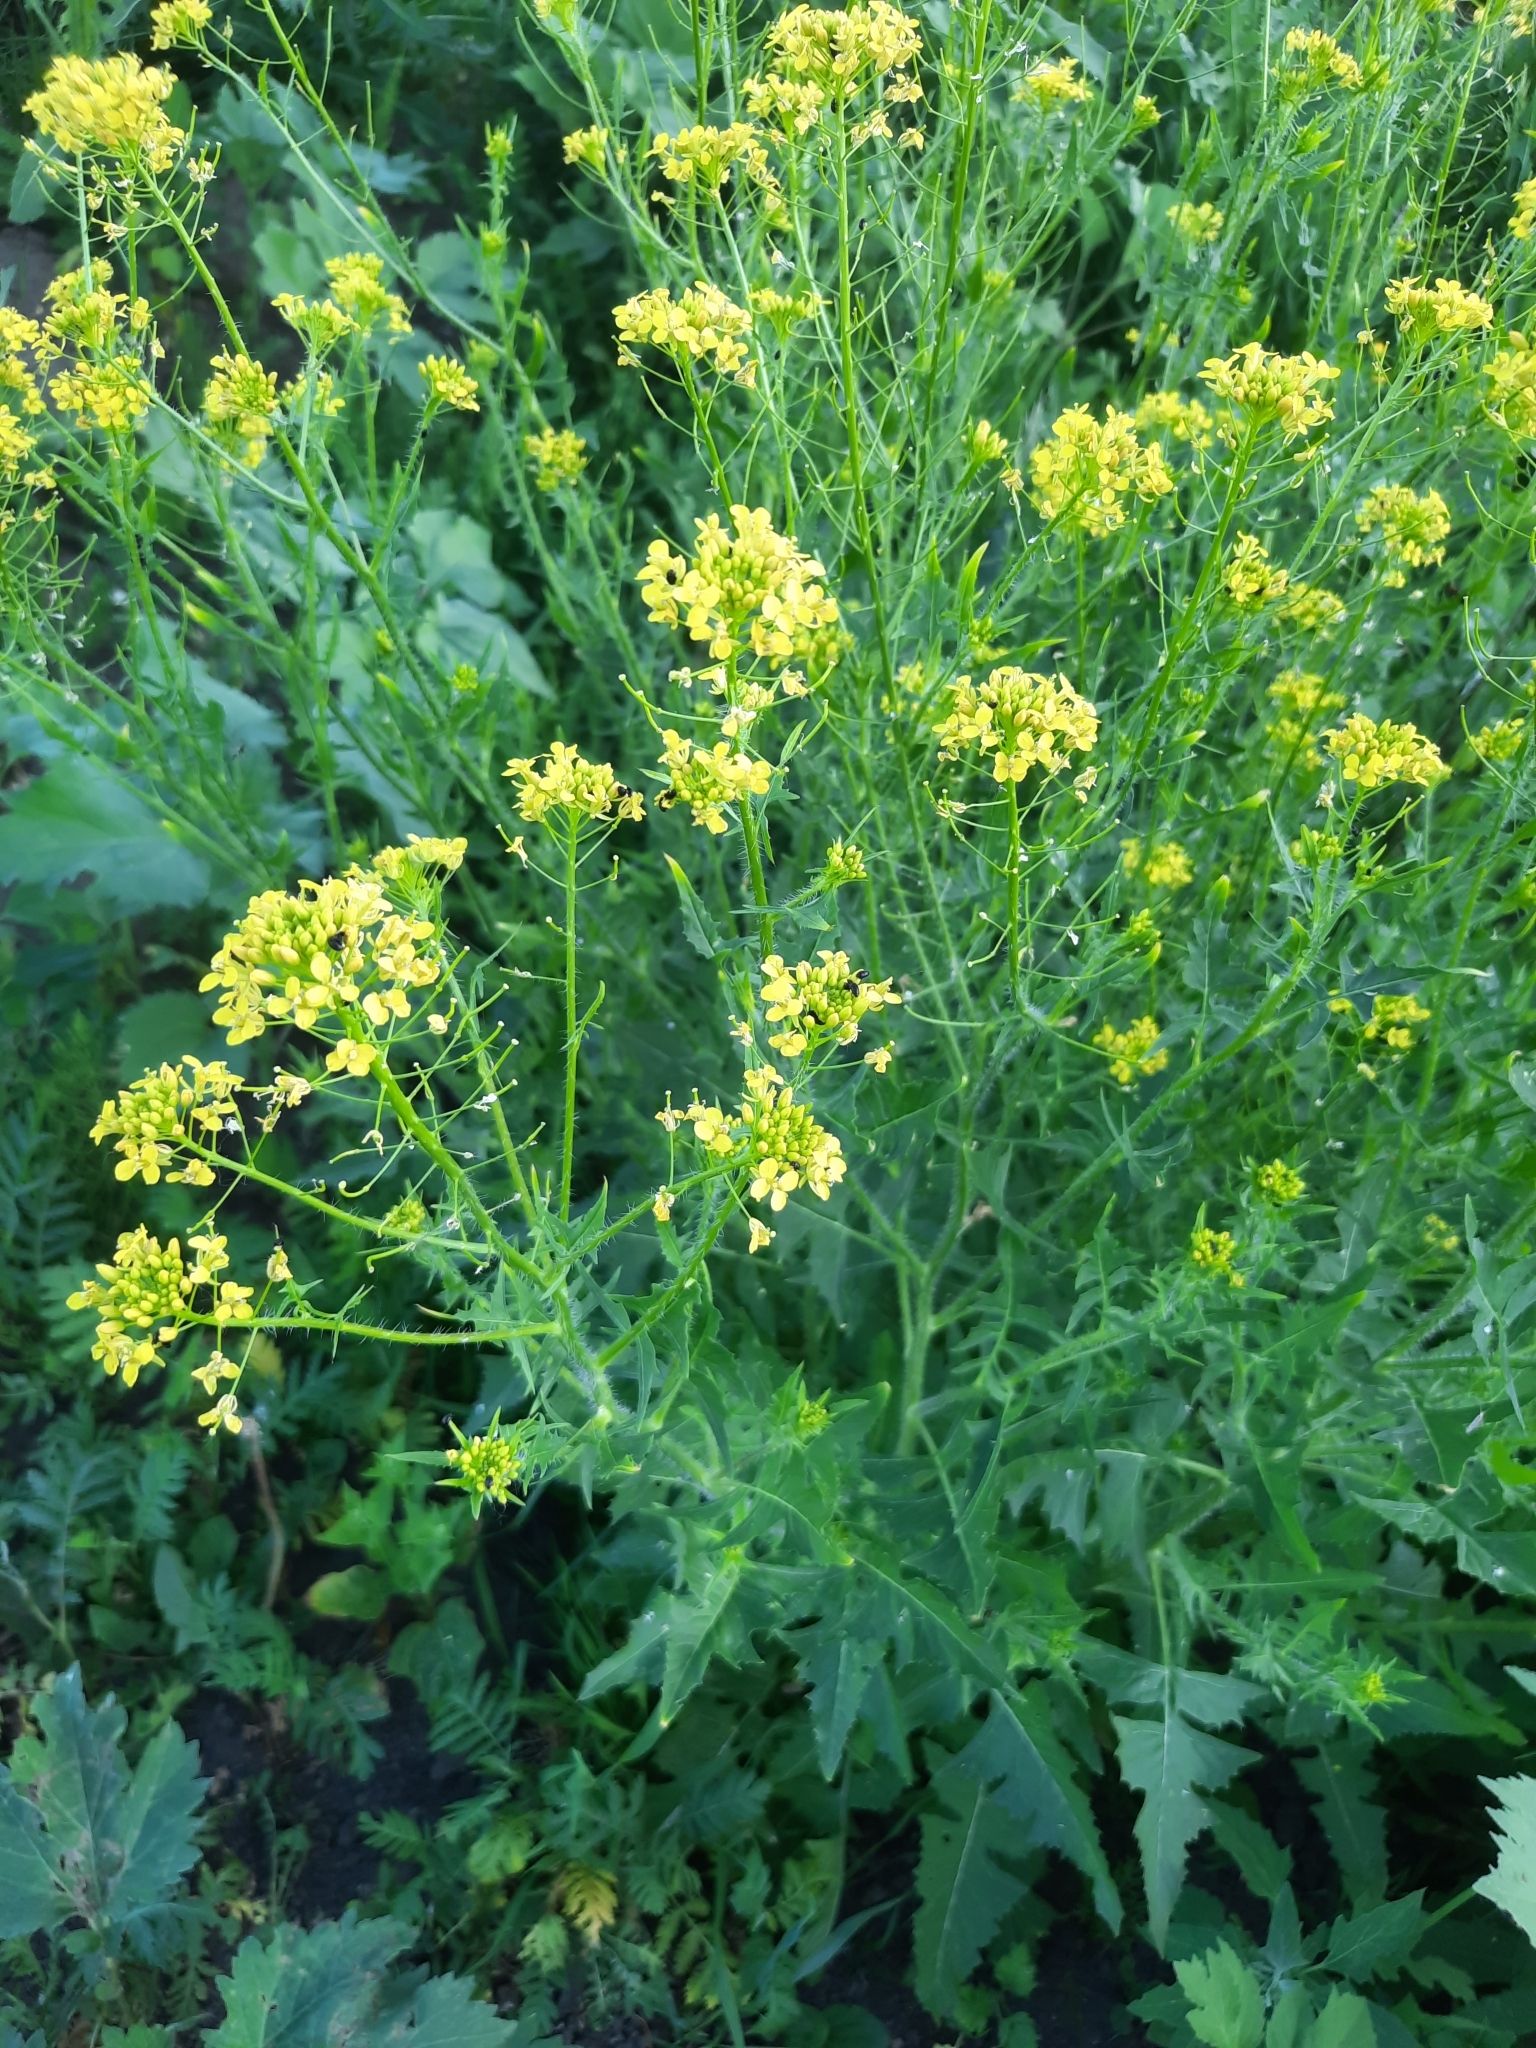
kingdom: Plantae
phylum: Tracheophyta
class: Magnoliopsida
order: Brassicales
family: Brassicaceae
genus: Sisymbrium
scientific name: Sisymbrium loeselii
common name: False london-rocket
